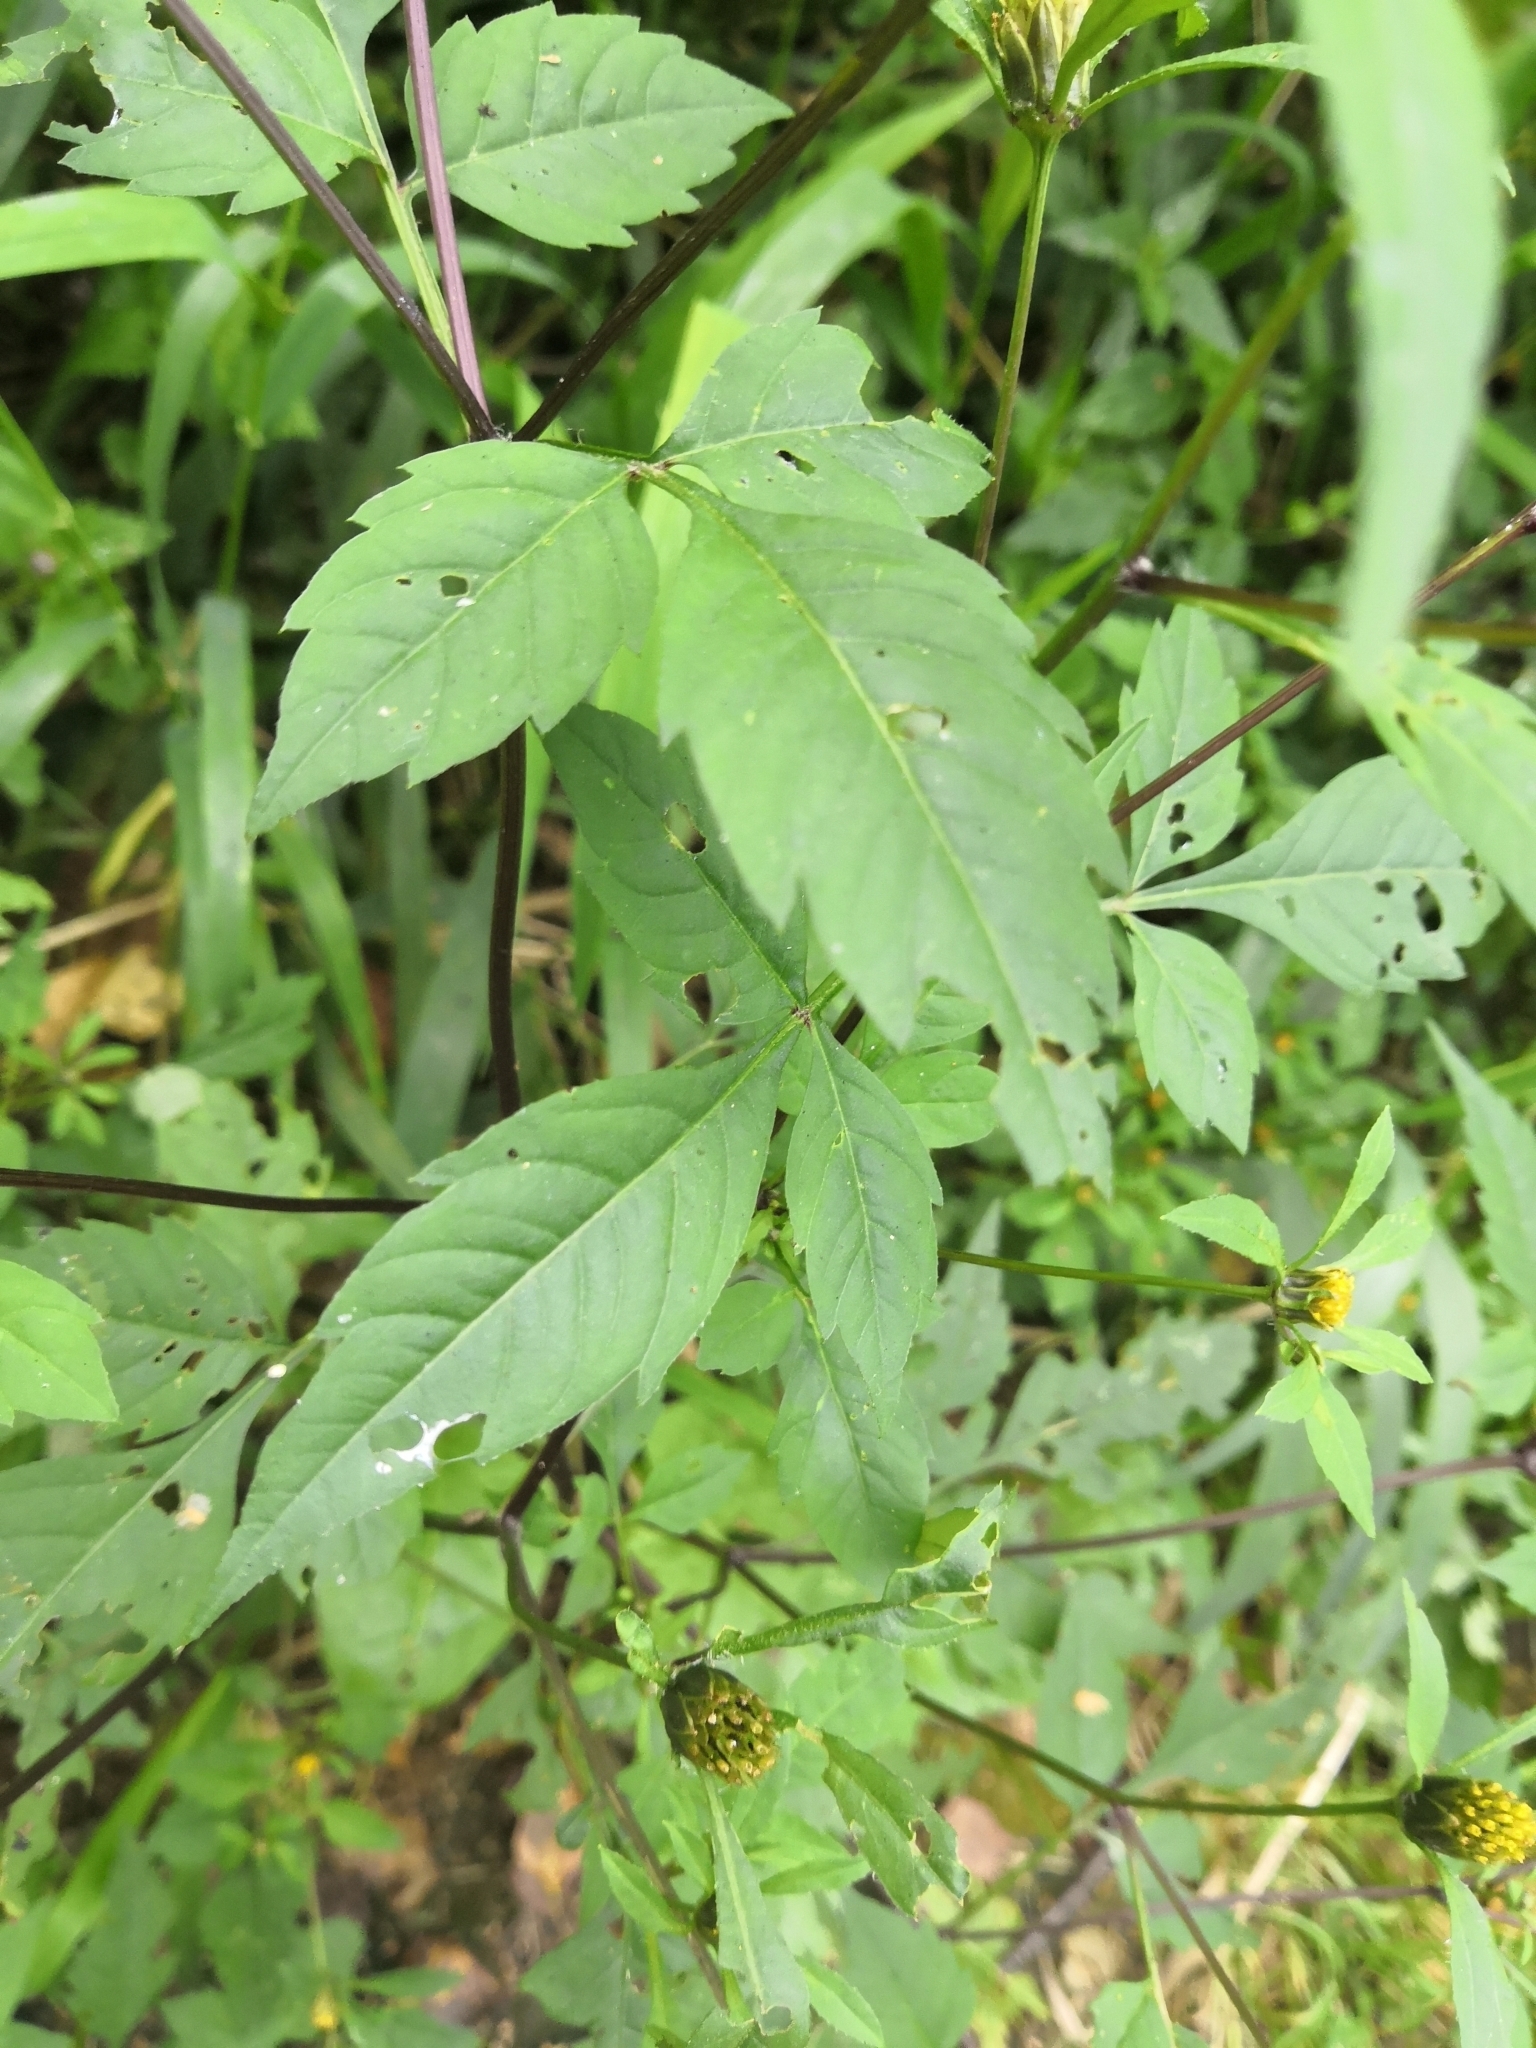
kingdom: Plantae
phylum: Tracheophyta
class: Magnoliopsida
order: Asterales
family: Asteraceae
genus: Bidens
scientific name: Bidens frondosa
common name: Beggarticks
